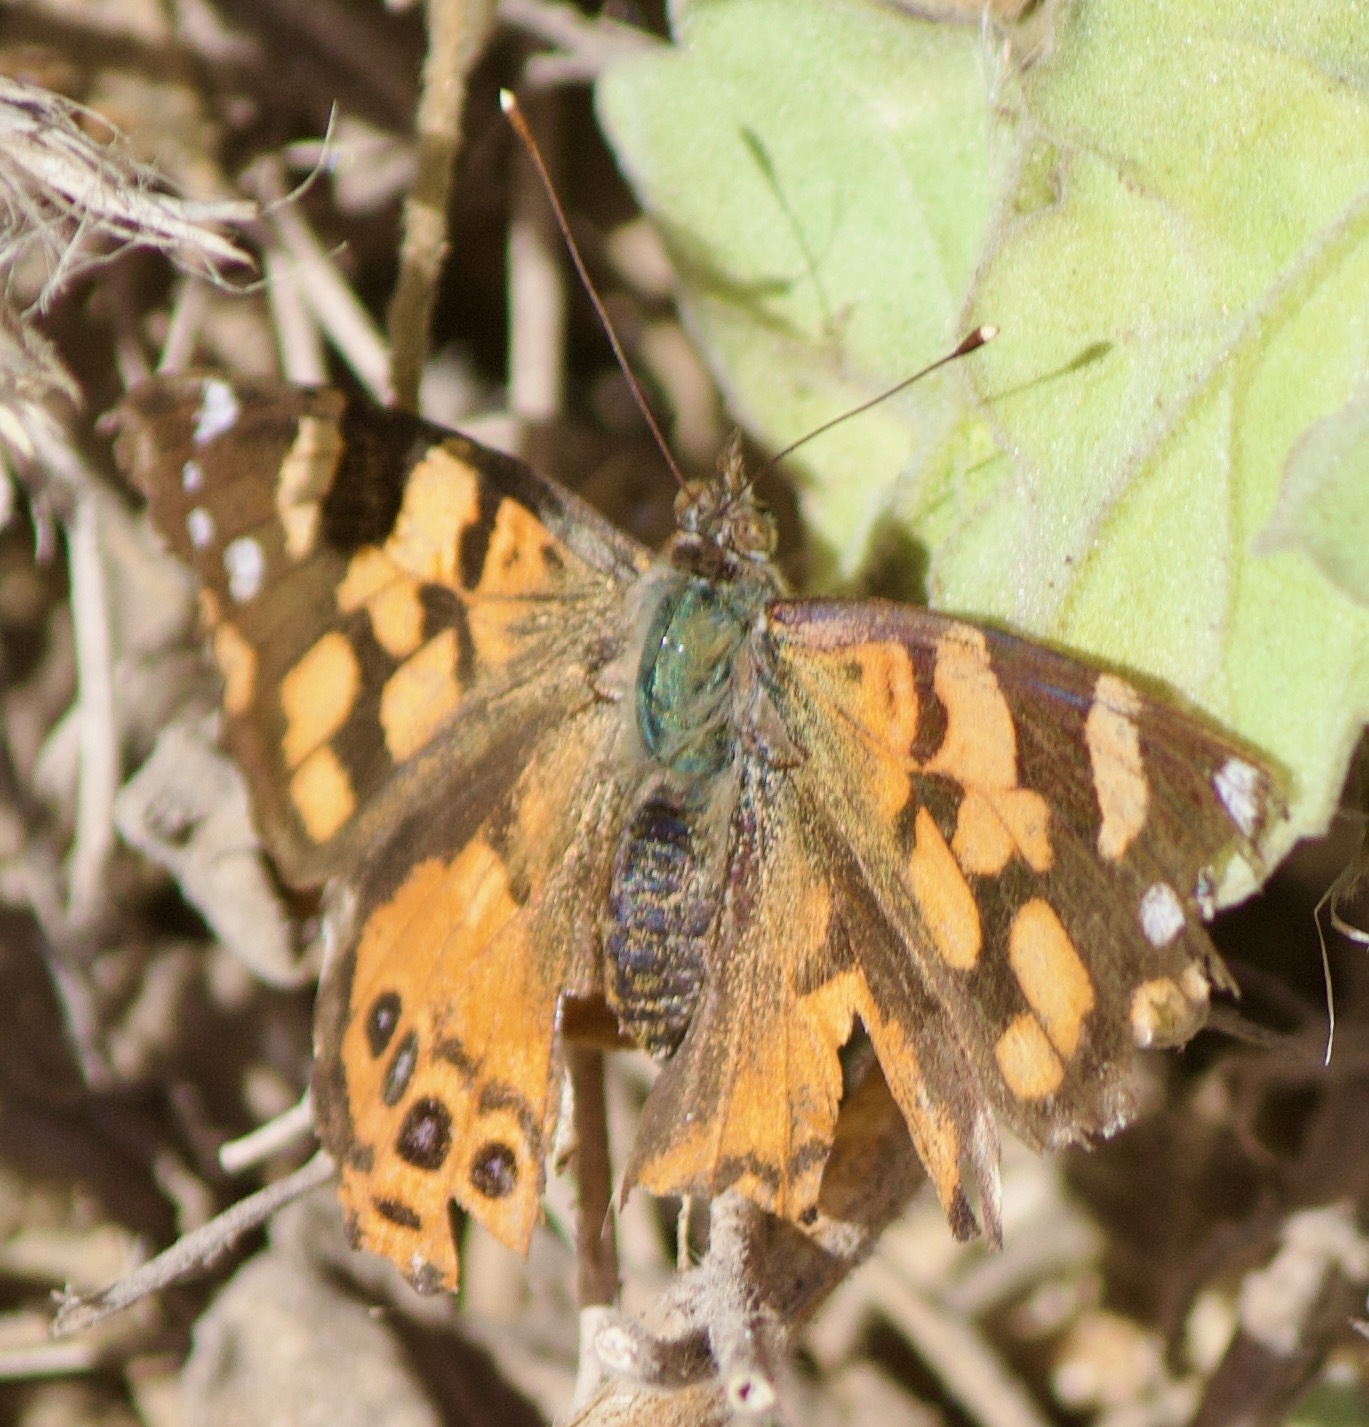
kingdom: Animalia
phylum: Arthropoda
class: Insecta
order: Lepidoptera
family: Nymphalidae
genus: Vanessa
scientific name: Vanessa carye
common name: Subtropical lady
